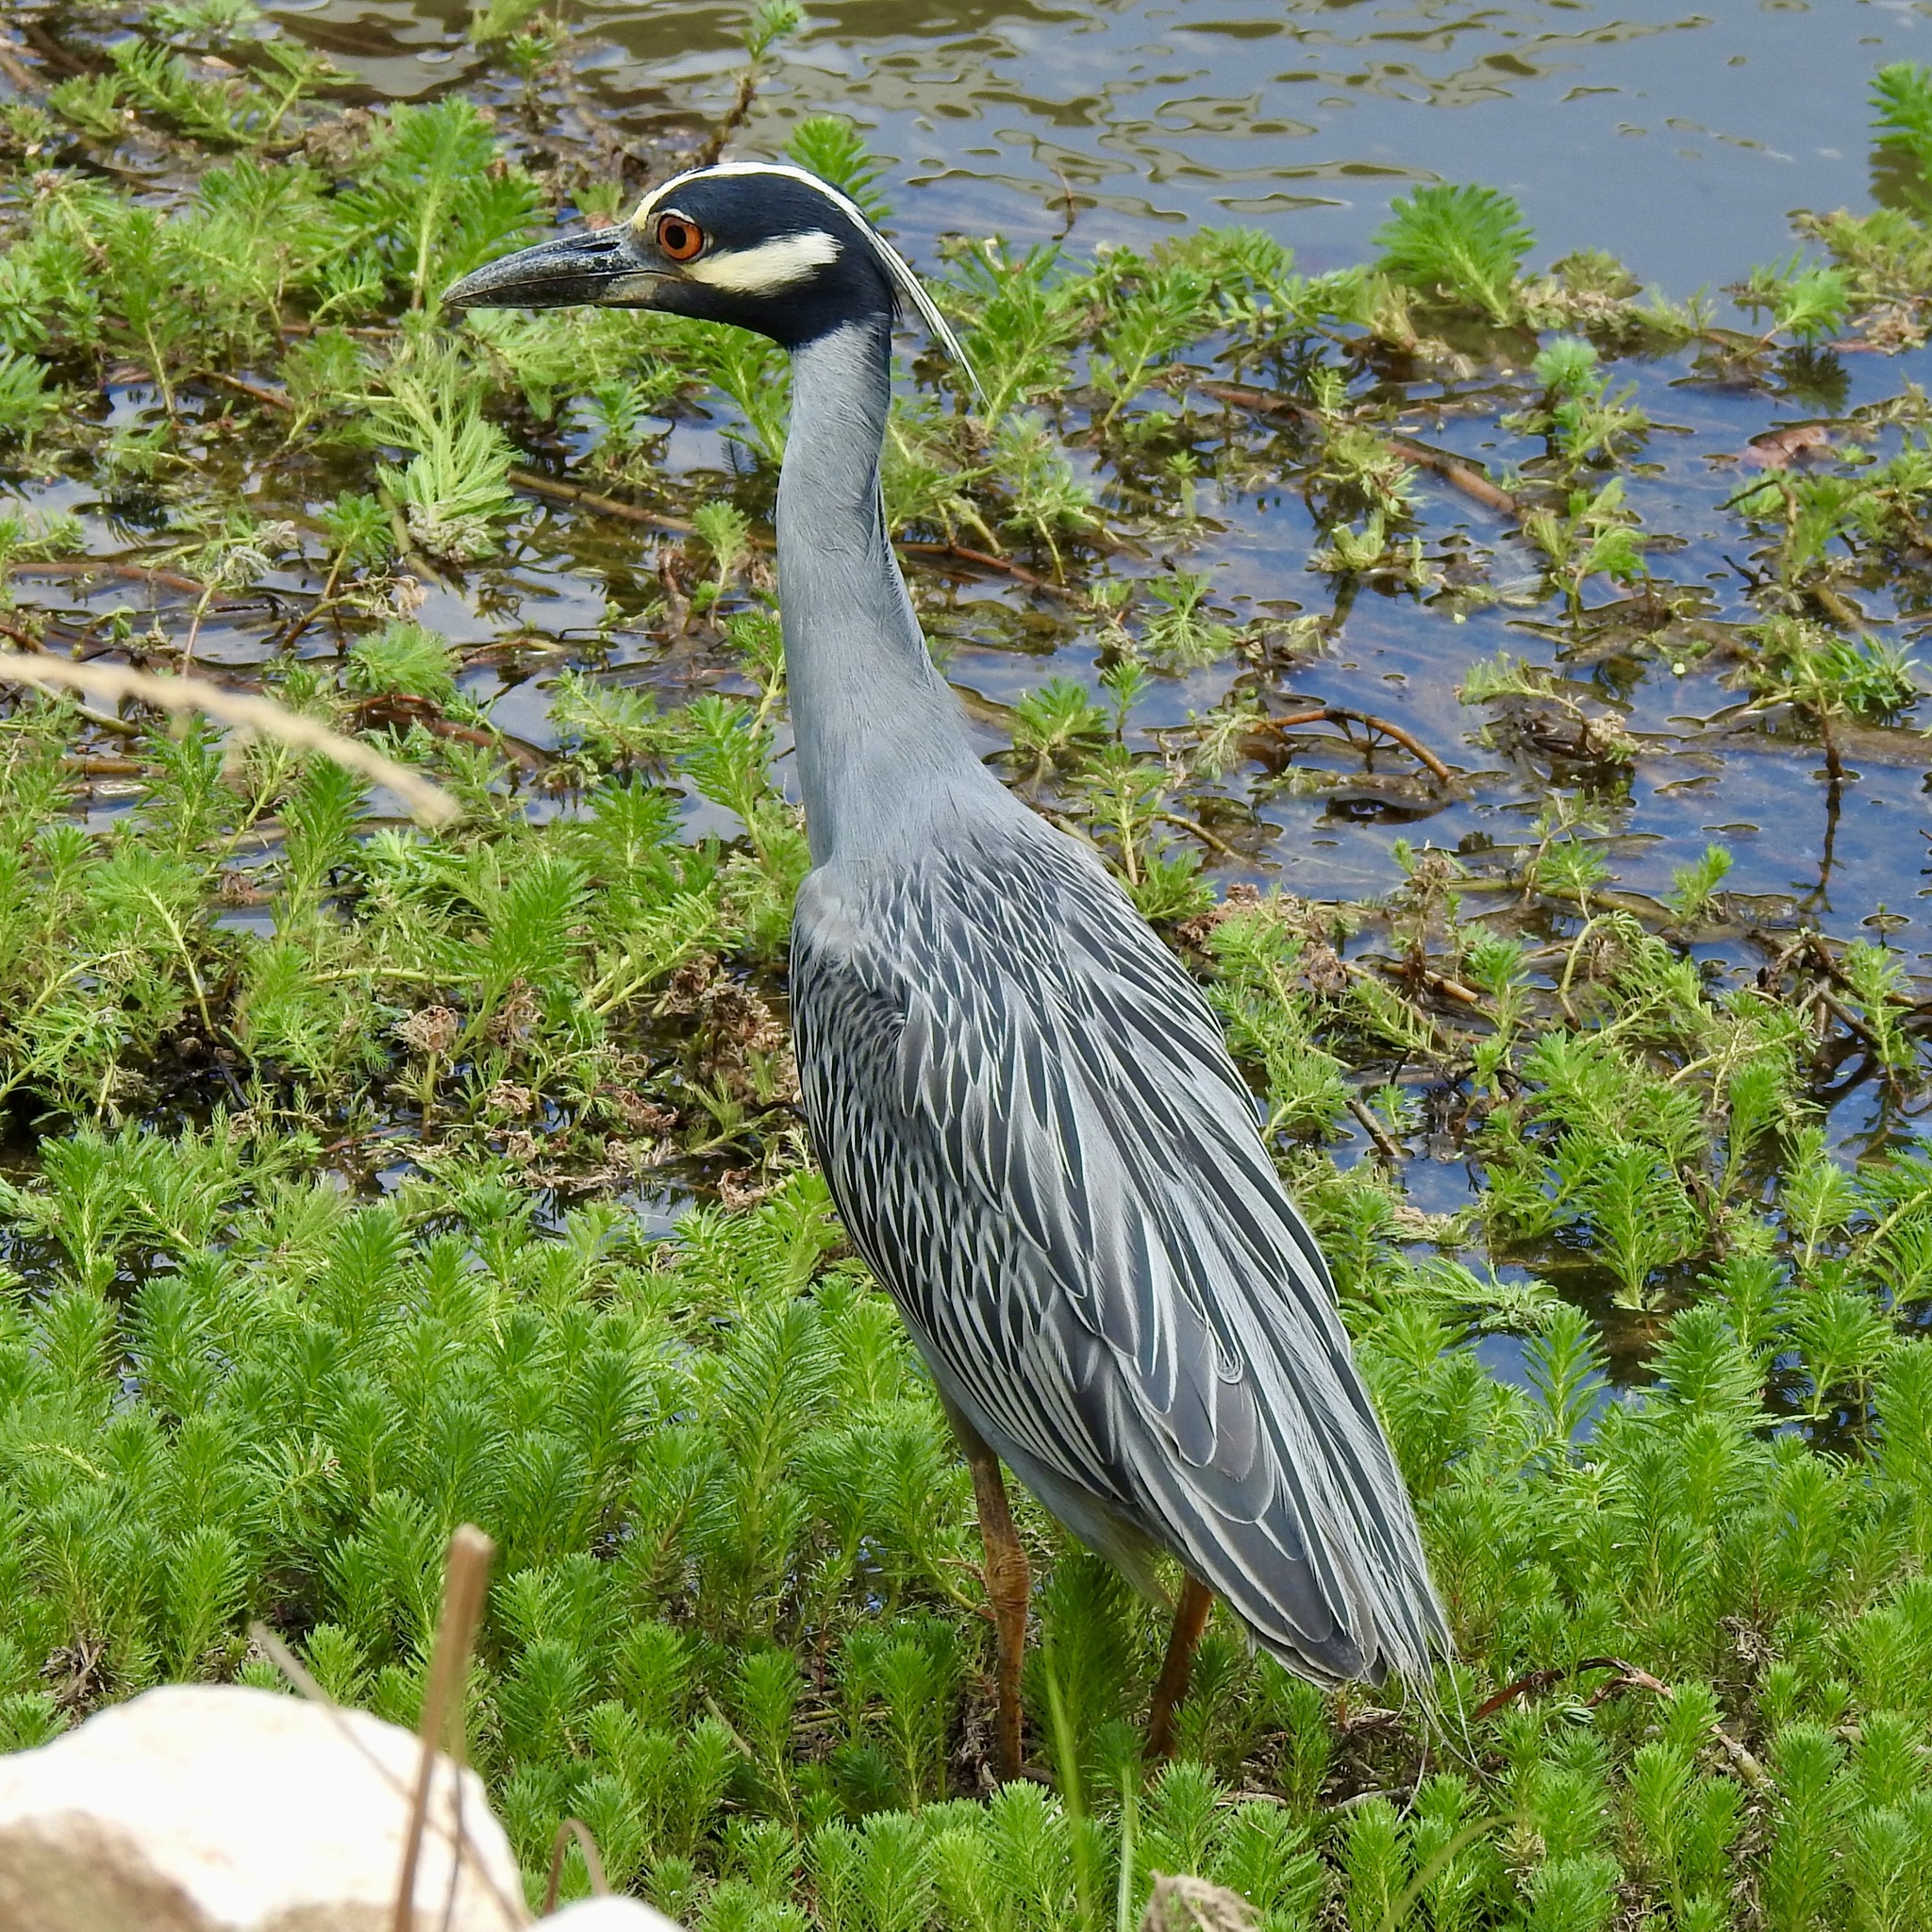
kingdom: Animalia
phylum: Chordata
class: Aves
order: Pelecaniformes
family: Ardeidae
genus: Nyctanassa
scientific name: Nyctanassa violacea
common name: Yellow-crowned night heron
